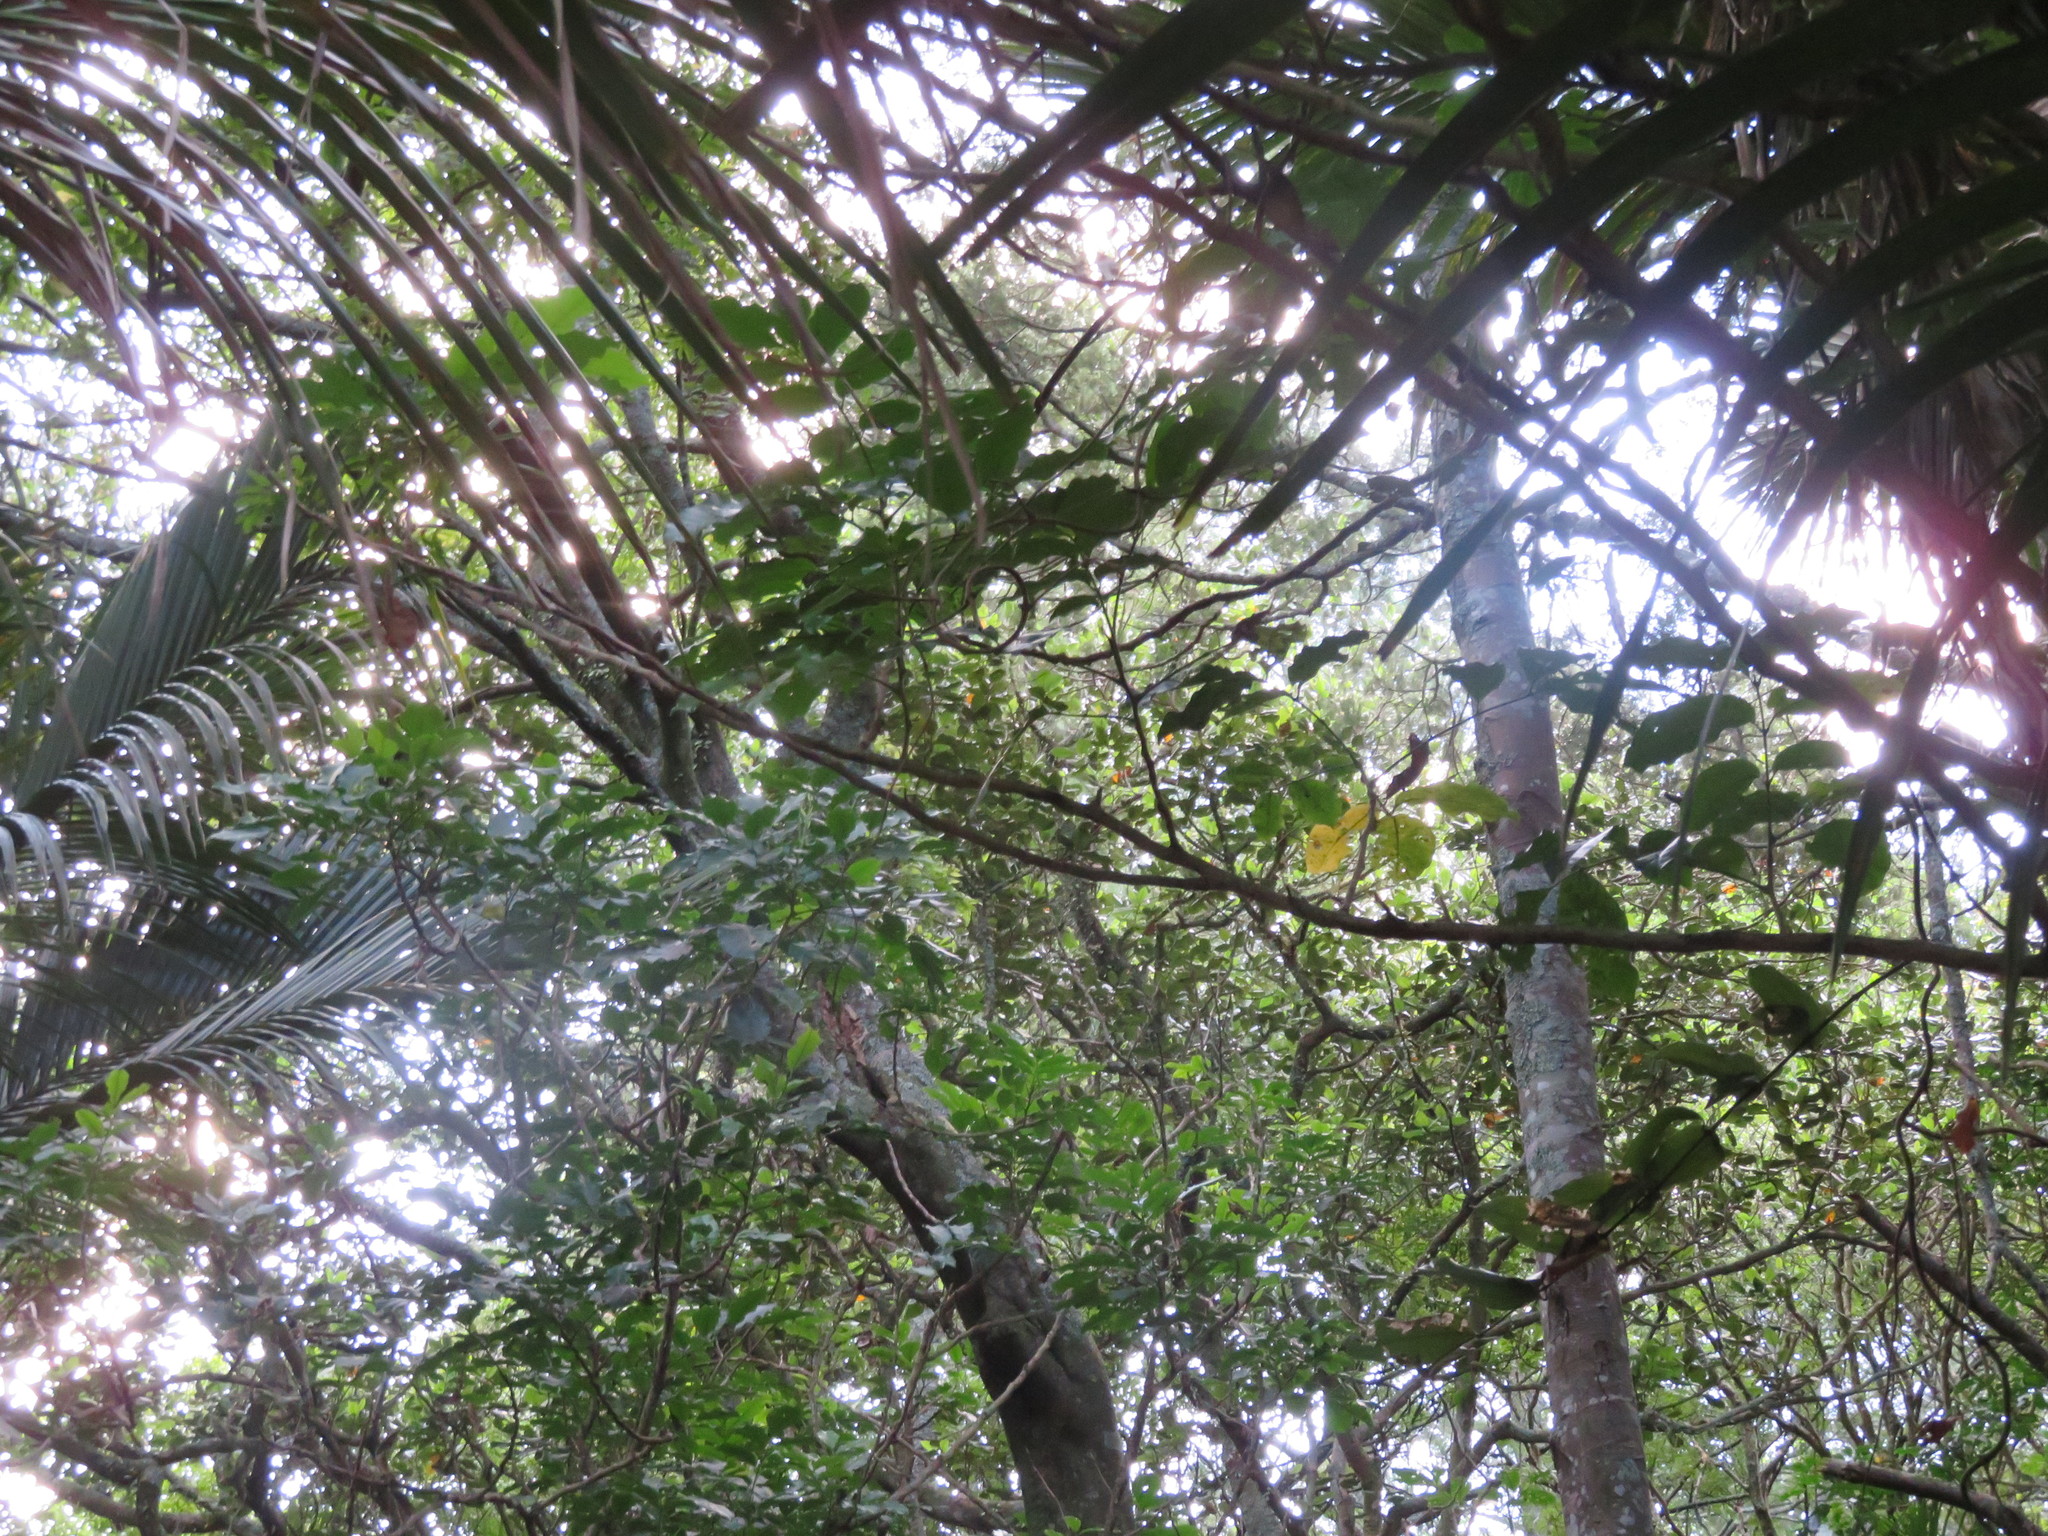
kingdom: Plantae
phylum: Tracheophyta
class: Liliopsida
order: Liliales
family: Ripogonaceae
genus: Ripogonum
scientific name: Ripogonum scandens
